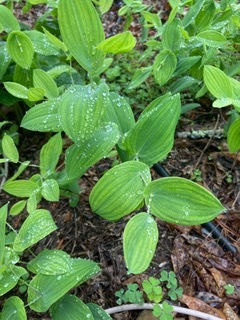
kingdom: Plantae
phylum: Tracheophyta
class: Liliopsida
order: Liliales
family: Colchicaceae
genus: Uvularia
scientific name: Uvularia perfoliata
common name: Perfoliate bellwort
